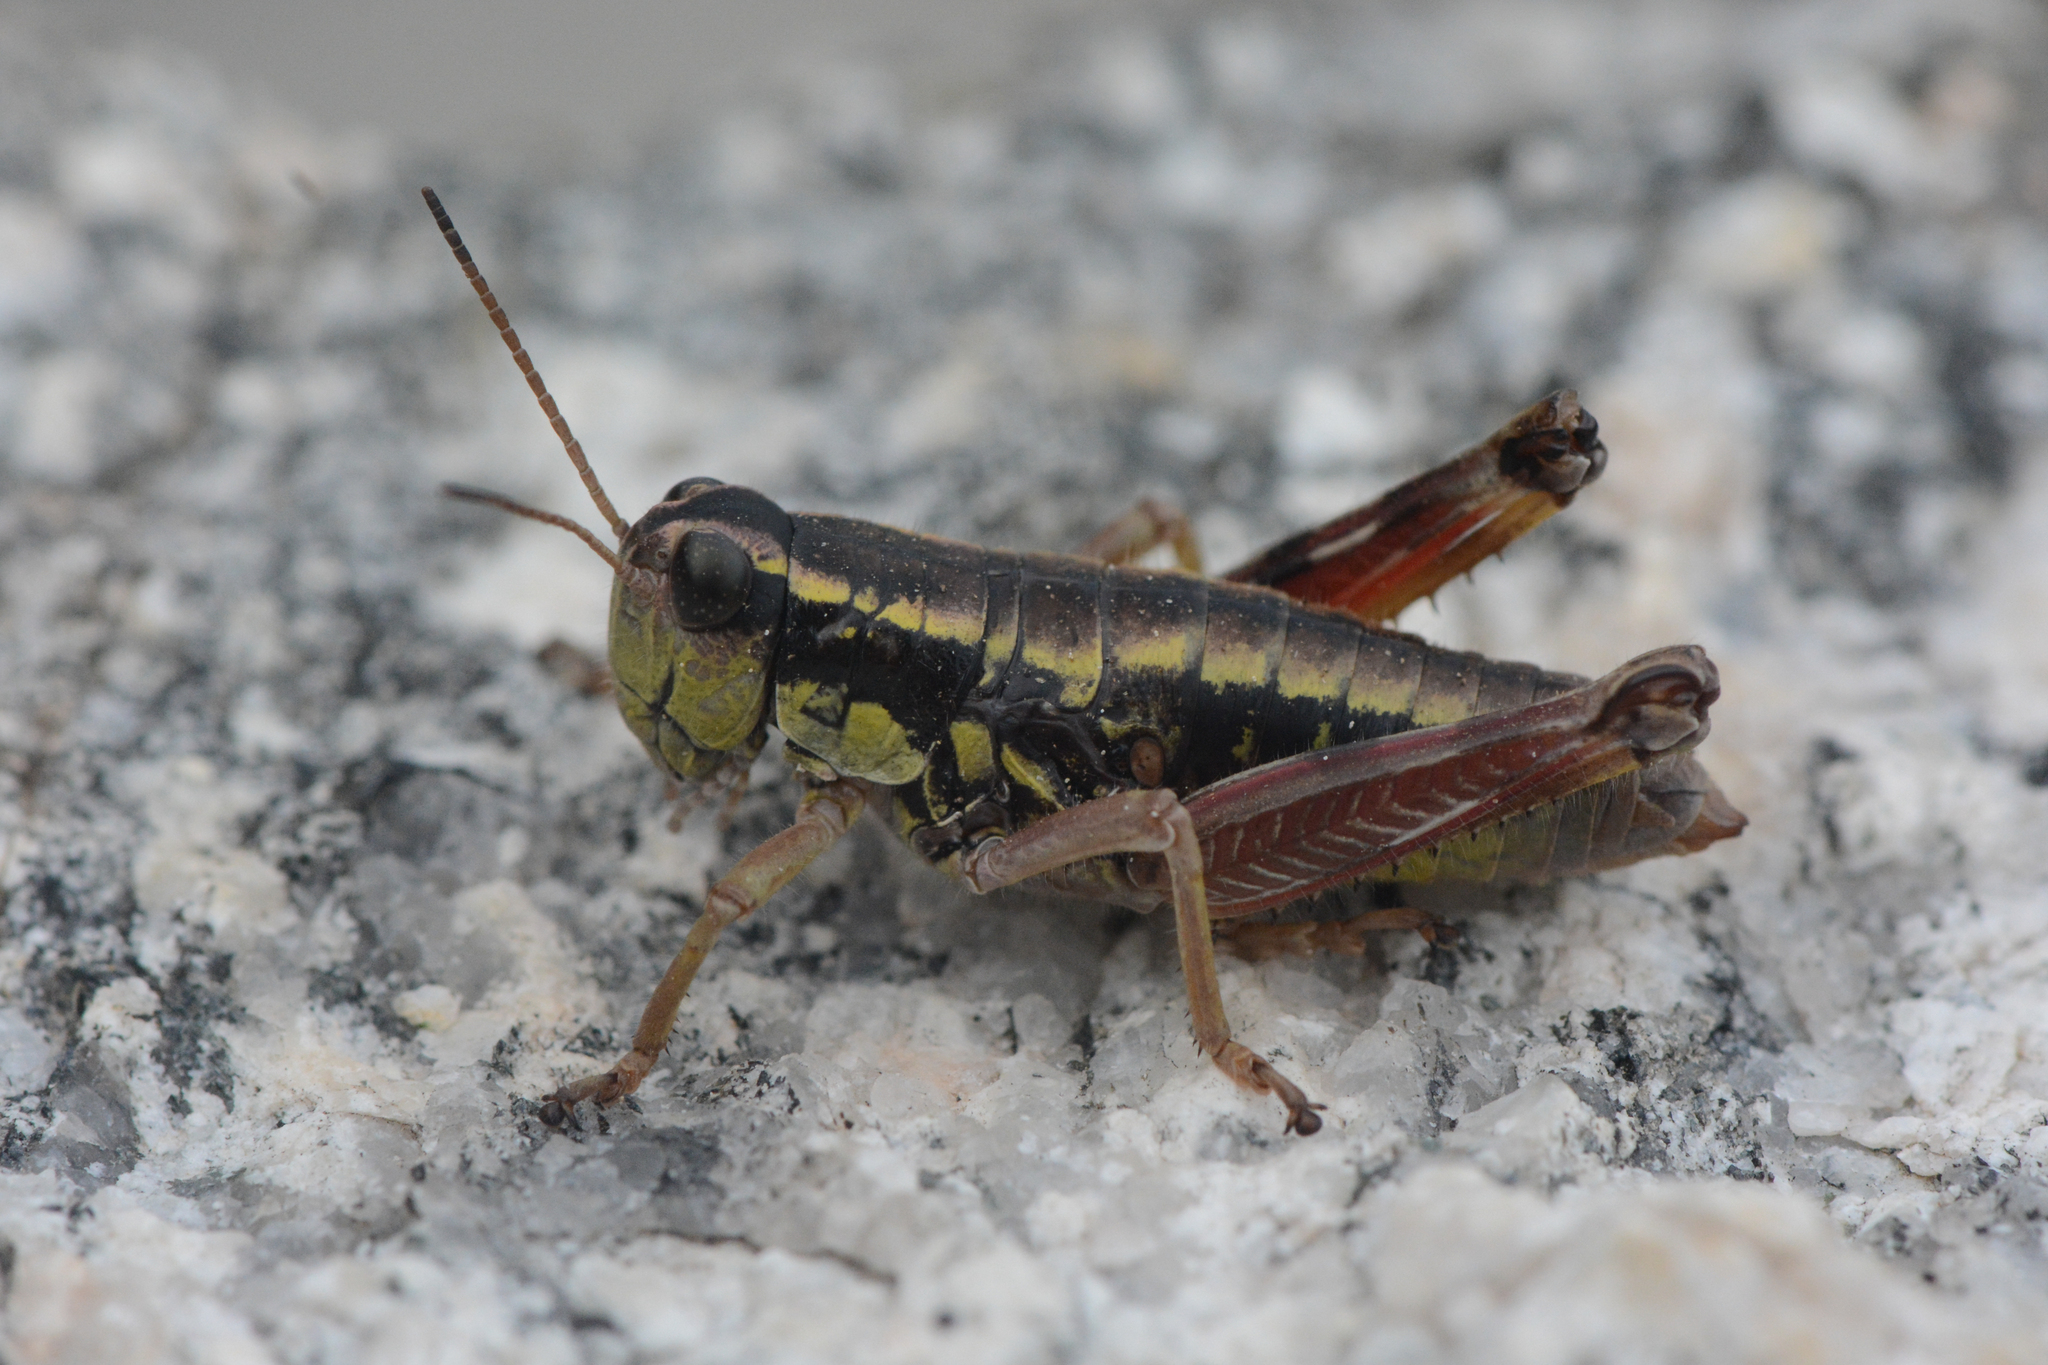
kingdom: Animalia
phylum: Arthropoda
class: Insecta
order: Orthoptera
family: Acrididae
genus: Buckellacris
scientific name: Buckellacris hispida
